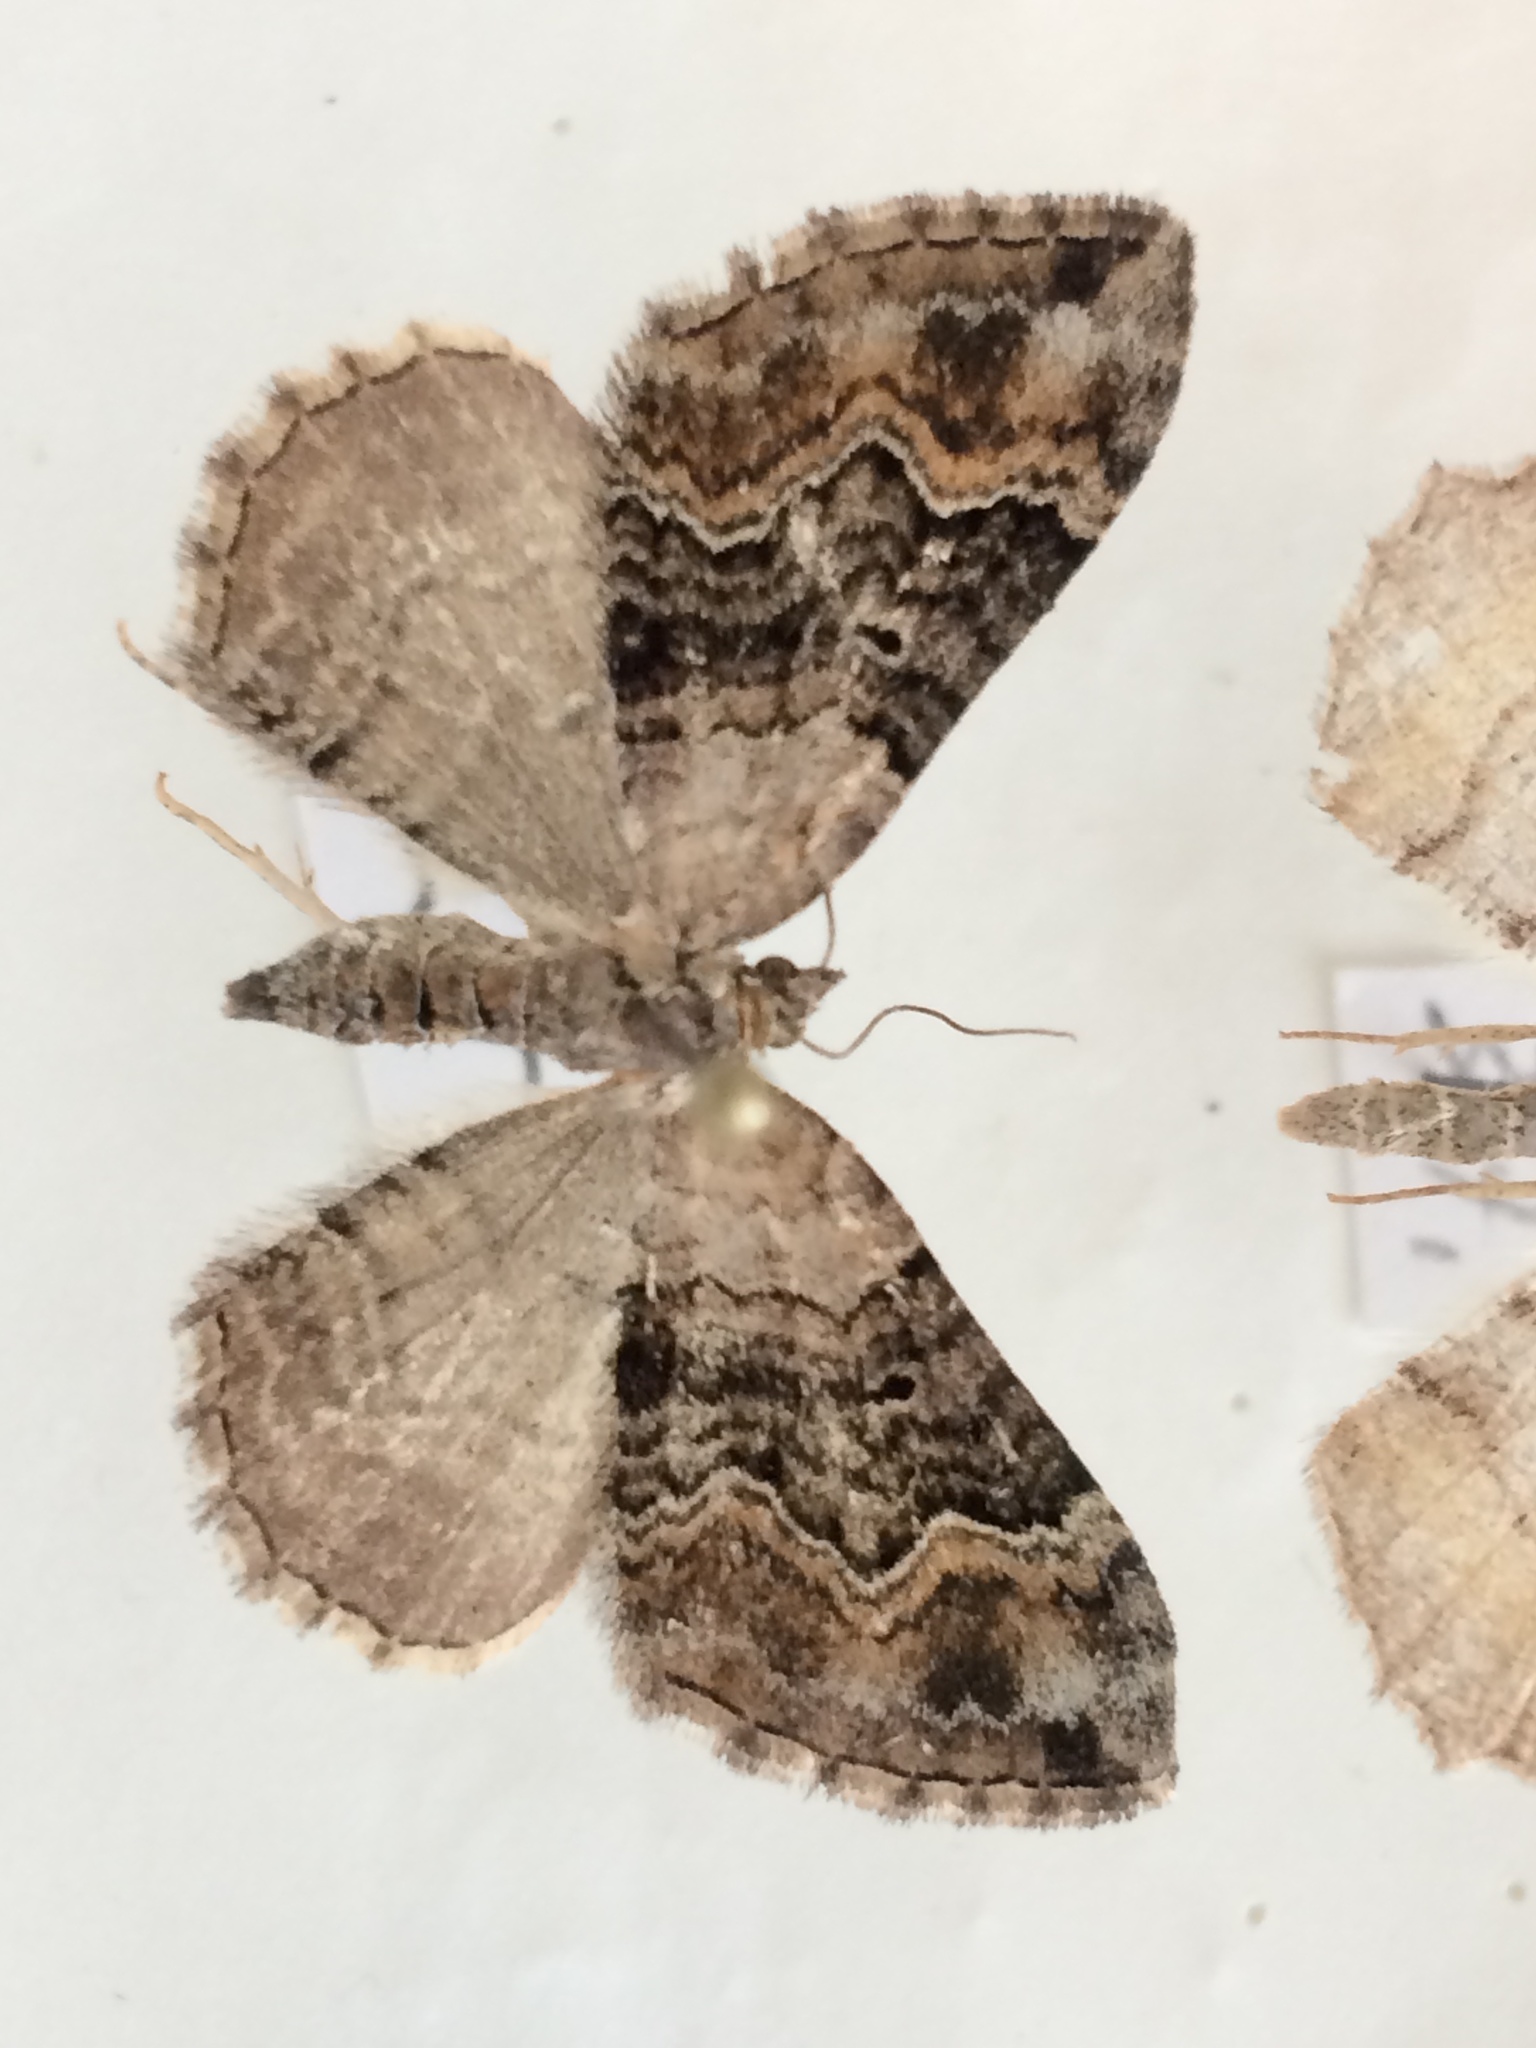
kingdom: Animalia
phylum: Arthropoda
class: Insecta
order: Lepidoptera
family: Geometridae
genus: Xanthorhoe
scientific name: Xanthorhoe quadrifasiata
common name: Large twin-spot carpet
